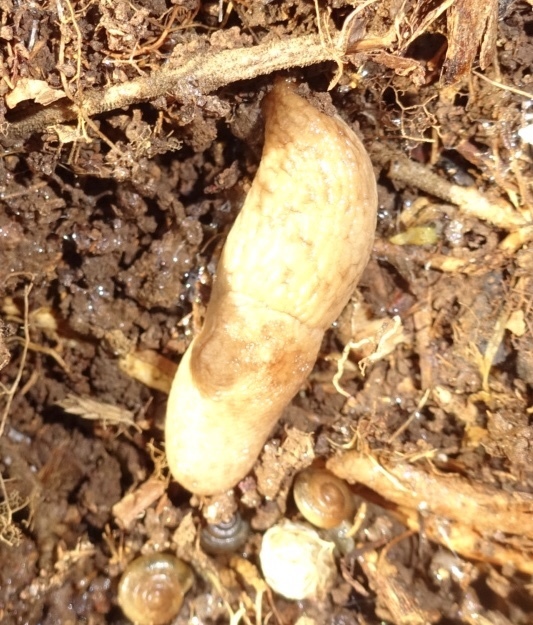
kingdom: Animalia
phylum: Mollusca
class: Gastropoda
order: Stylommatophora
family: Agriolimacidae
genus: Deroceras
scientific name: Deroceras reticulatum
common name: Gray field slug
